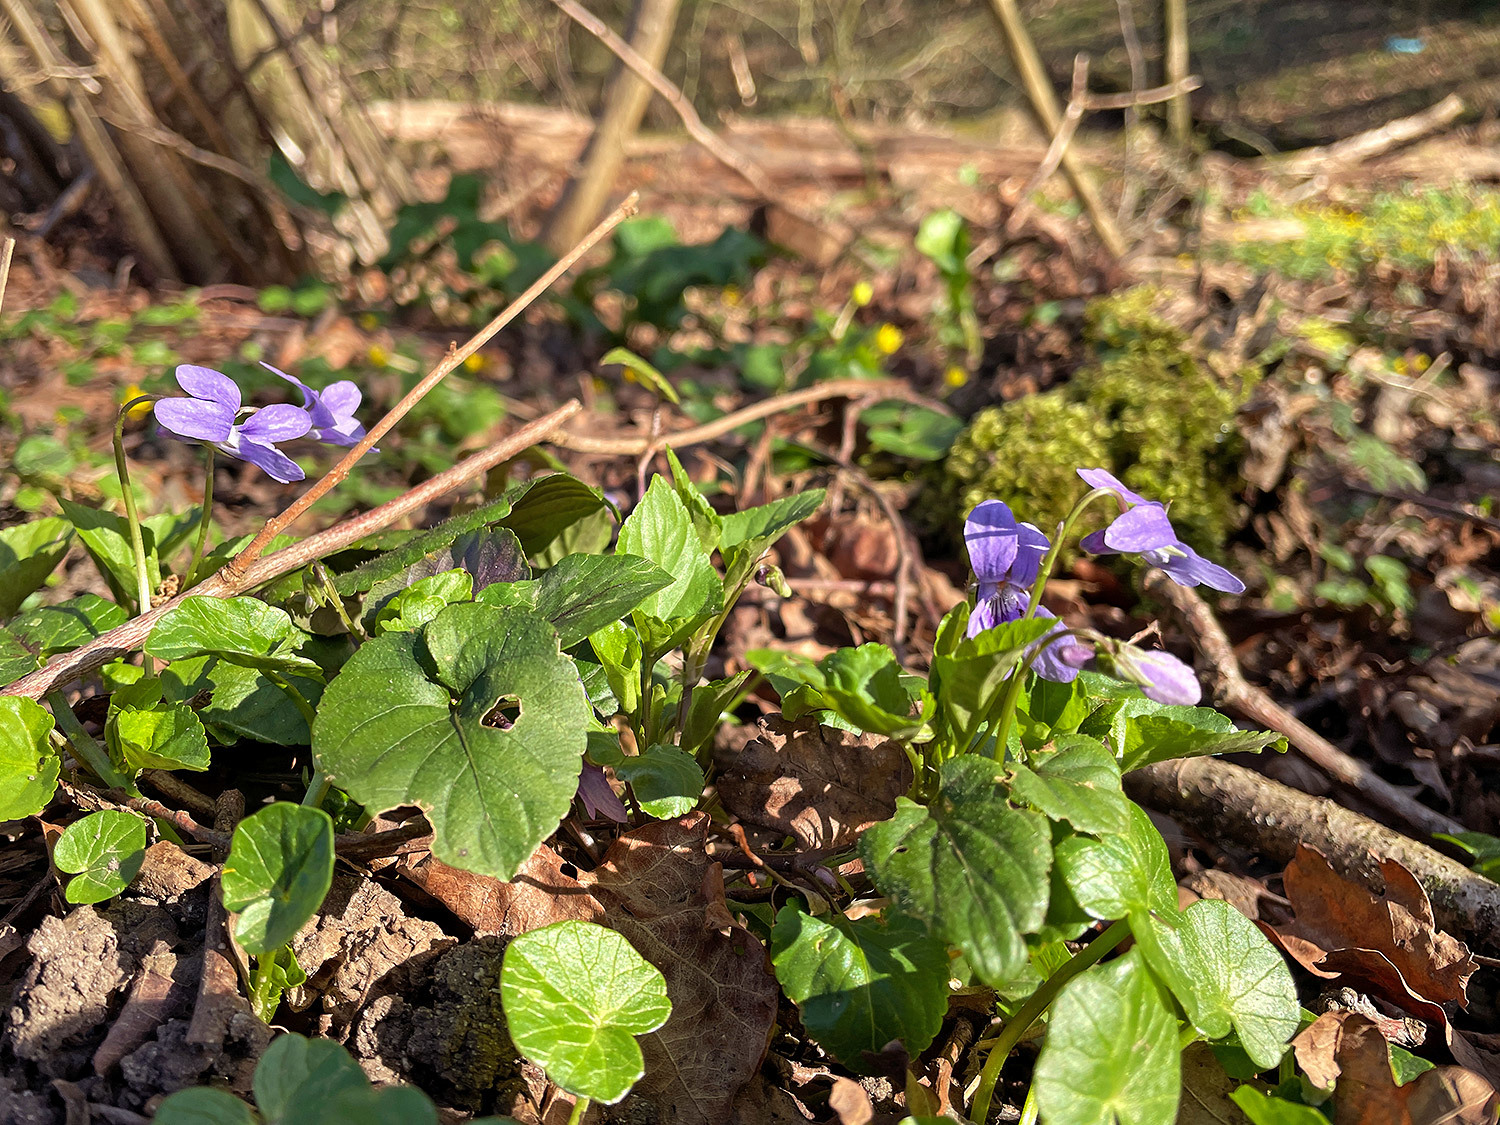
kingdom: Plantae
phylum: Tracheophyta
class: Magnoliopsida
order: Malpighiales
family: Violaceae
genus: Viola
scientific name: Viola reichenbachiana
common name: Early dog-violet
